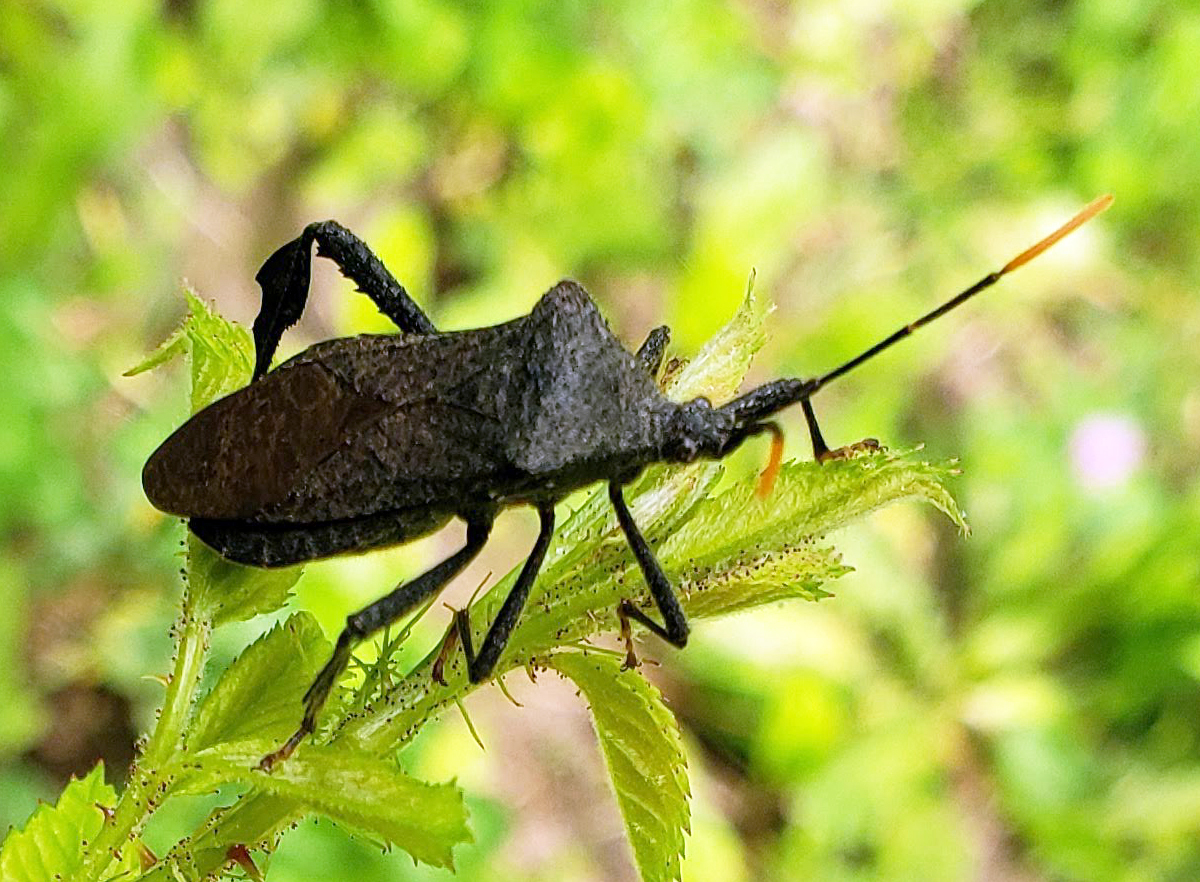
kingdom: Animalia
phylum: Arthropoda
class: Insecta
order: Hemiptera
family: Coreidae
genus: Acanthocephala
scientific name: Acanthocephala terminalis
